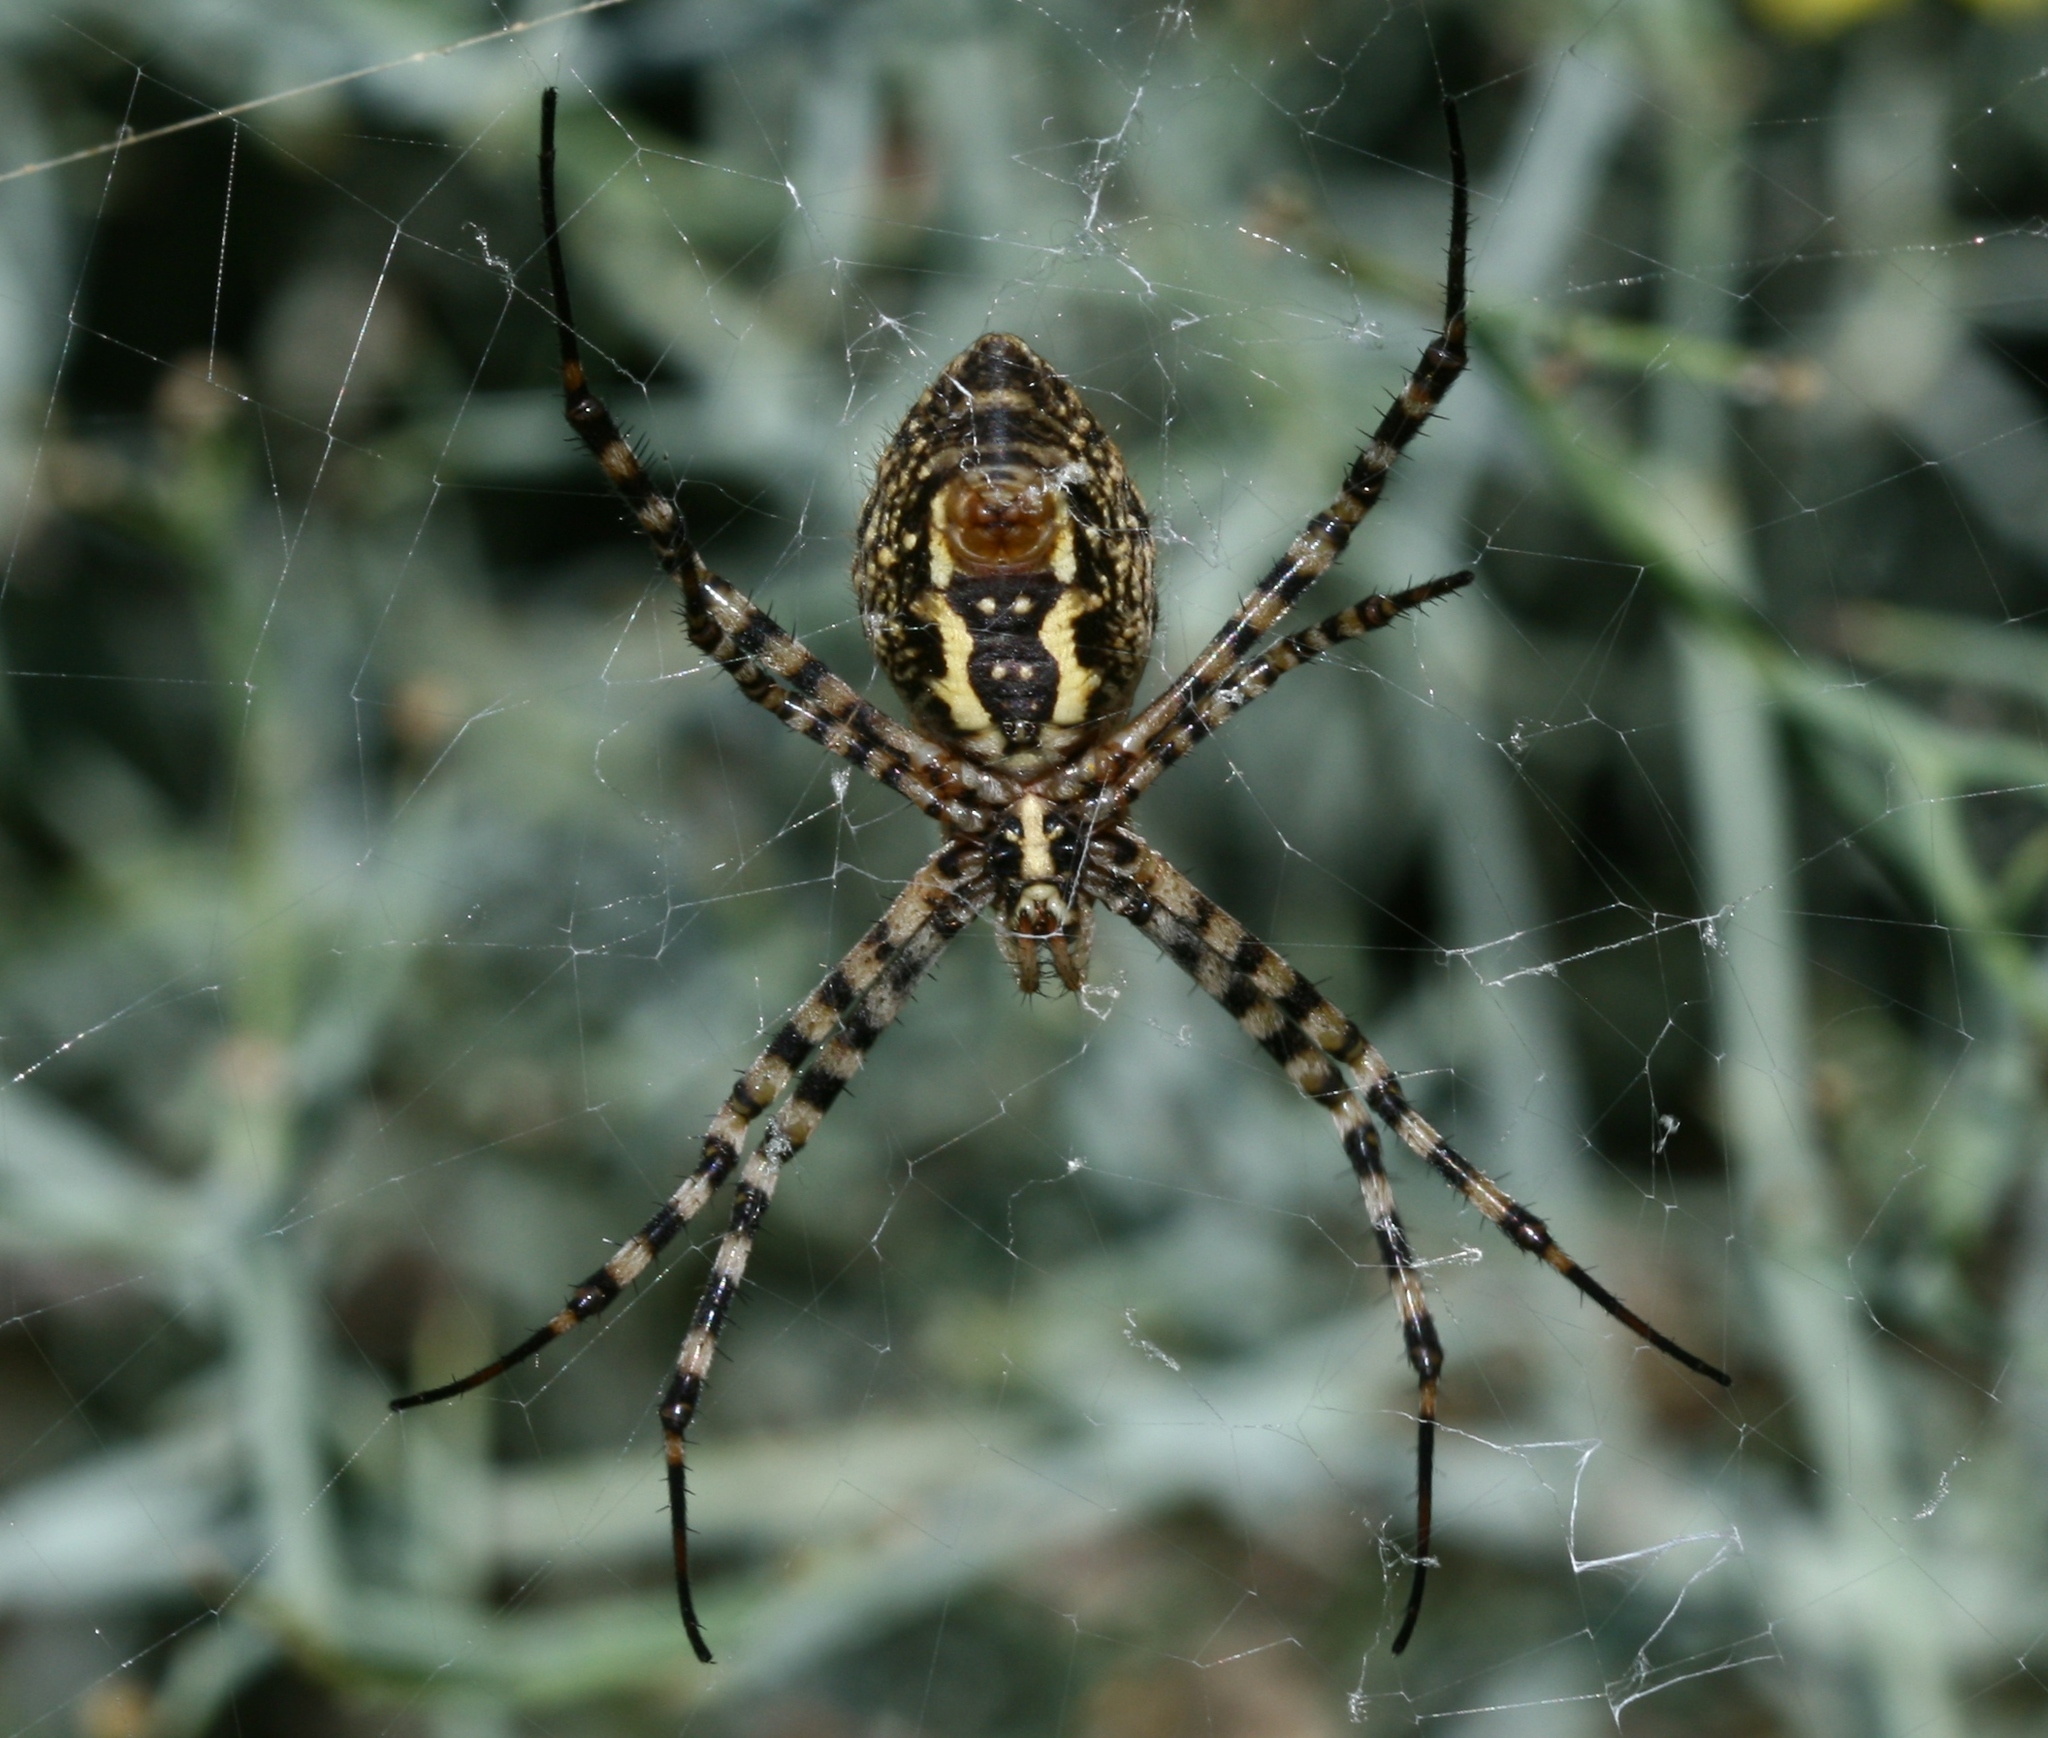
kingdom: Animalia
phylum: Arthropoda
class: Arachnida
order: Araneae
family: Araneidae
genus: Argiope
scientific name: Argiope trifasciata
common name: Banded garden spider
